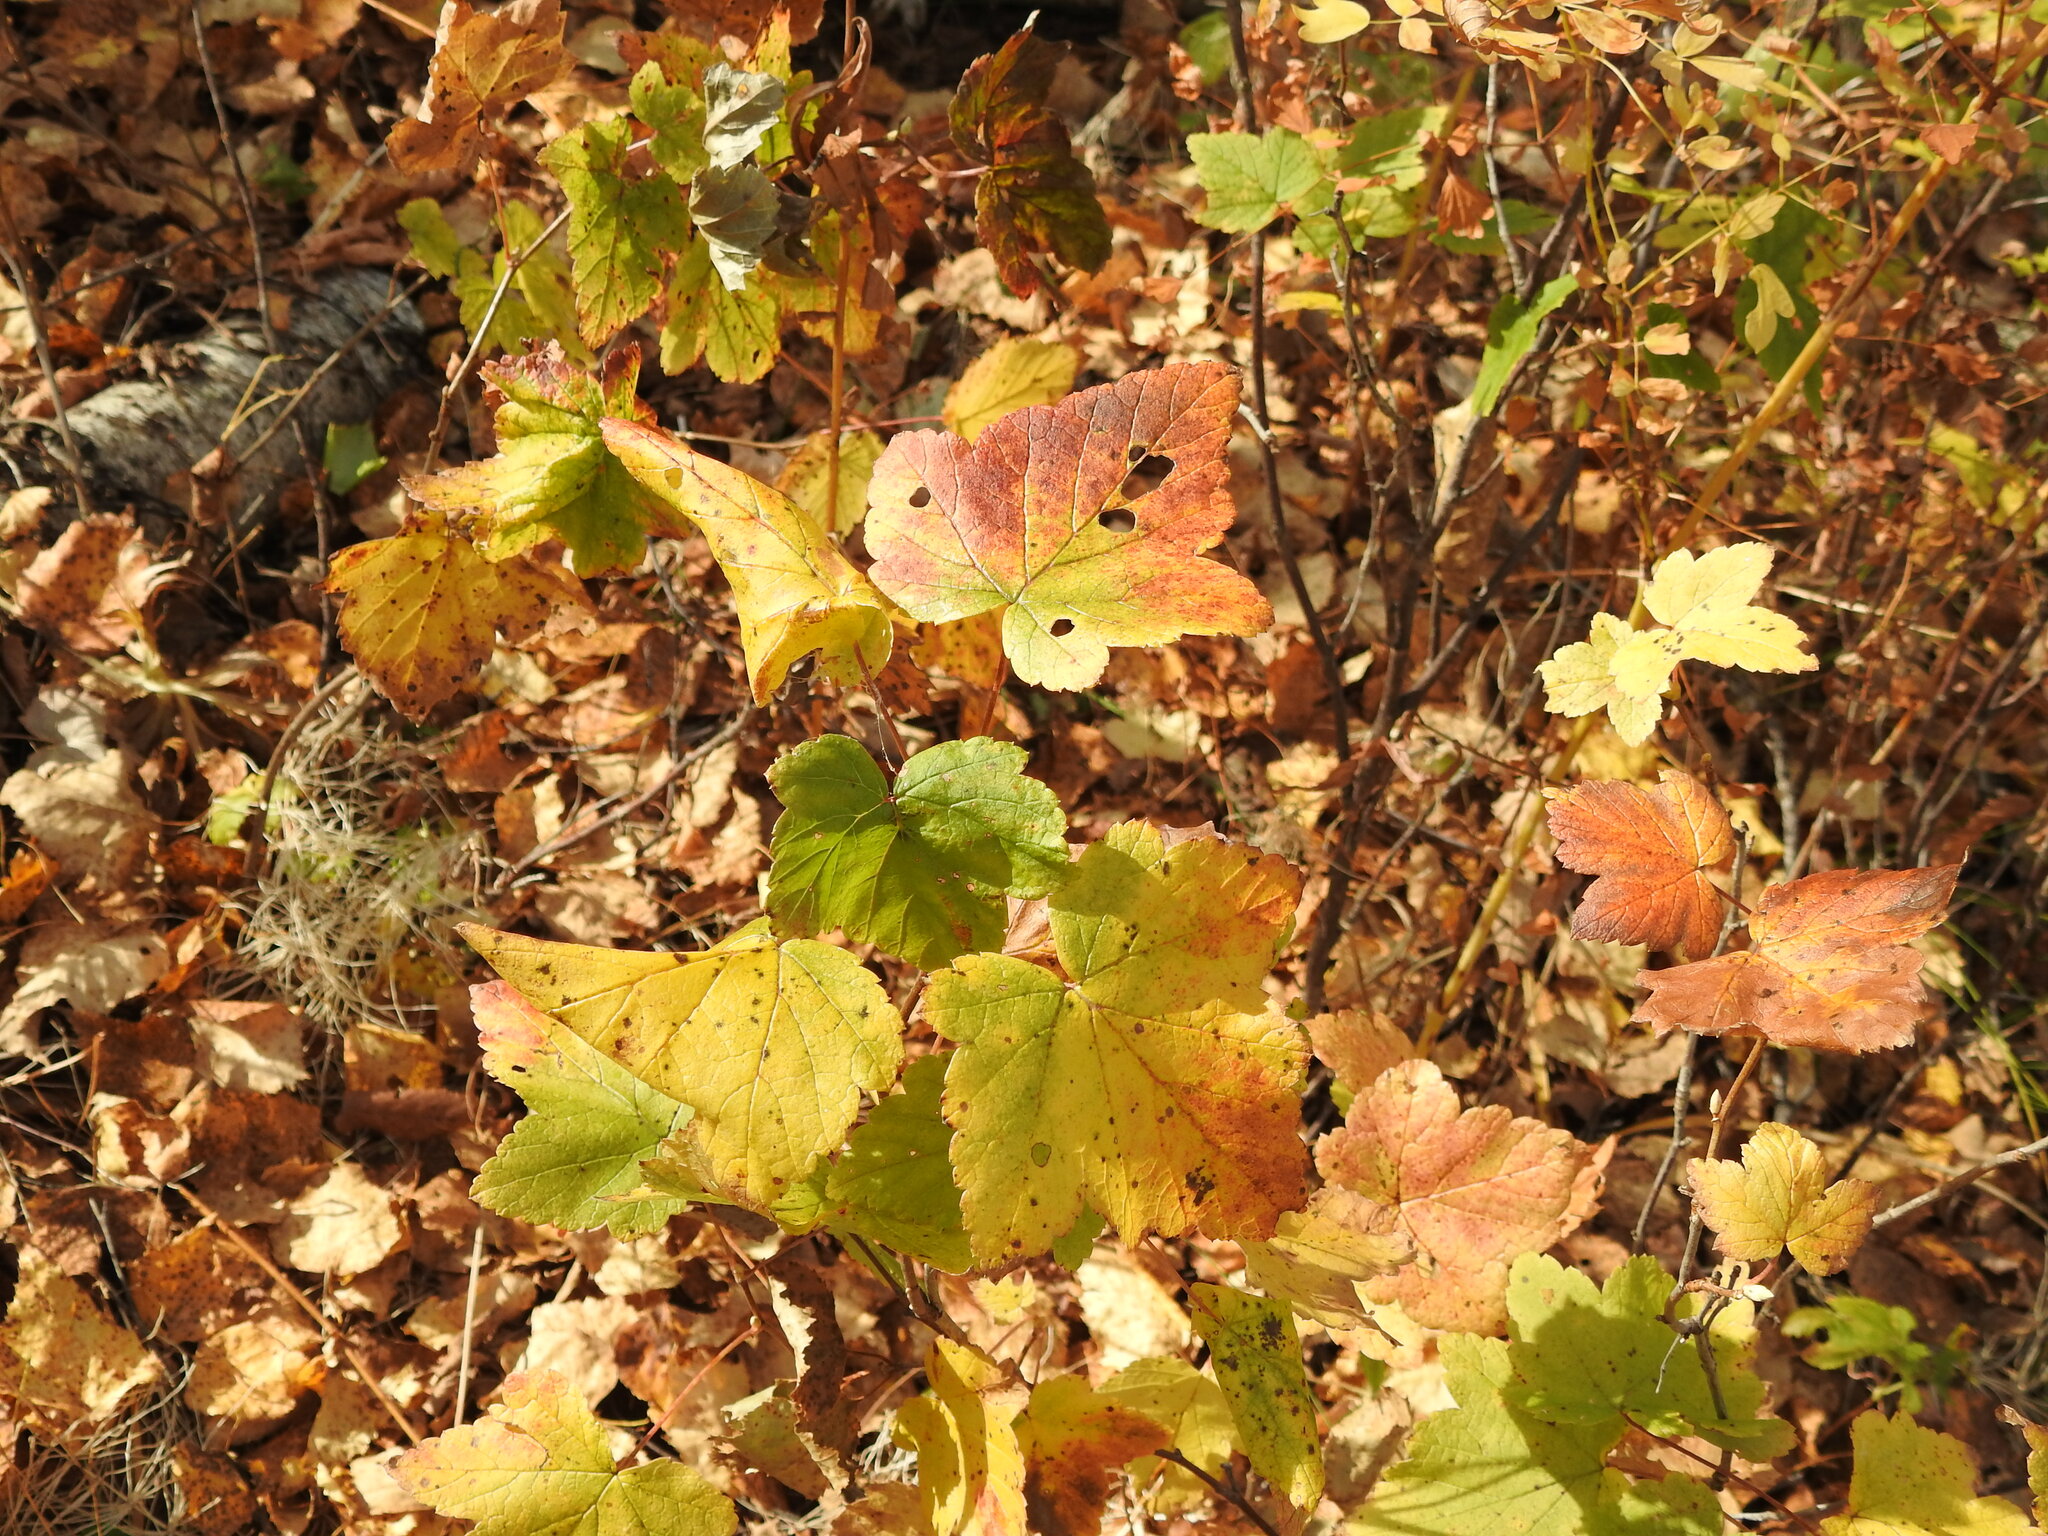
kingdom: Plantae
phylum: Tracheophyta
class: Magnoliopsida
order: Saxifragales
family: Grossulariaceae
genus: Ribes
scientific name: Ribes nigrum
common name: Black currant
